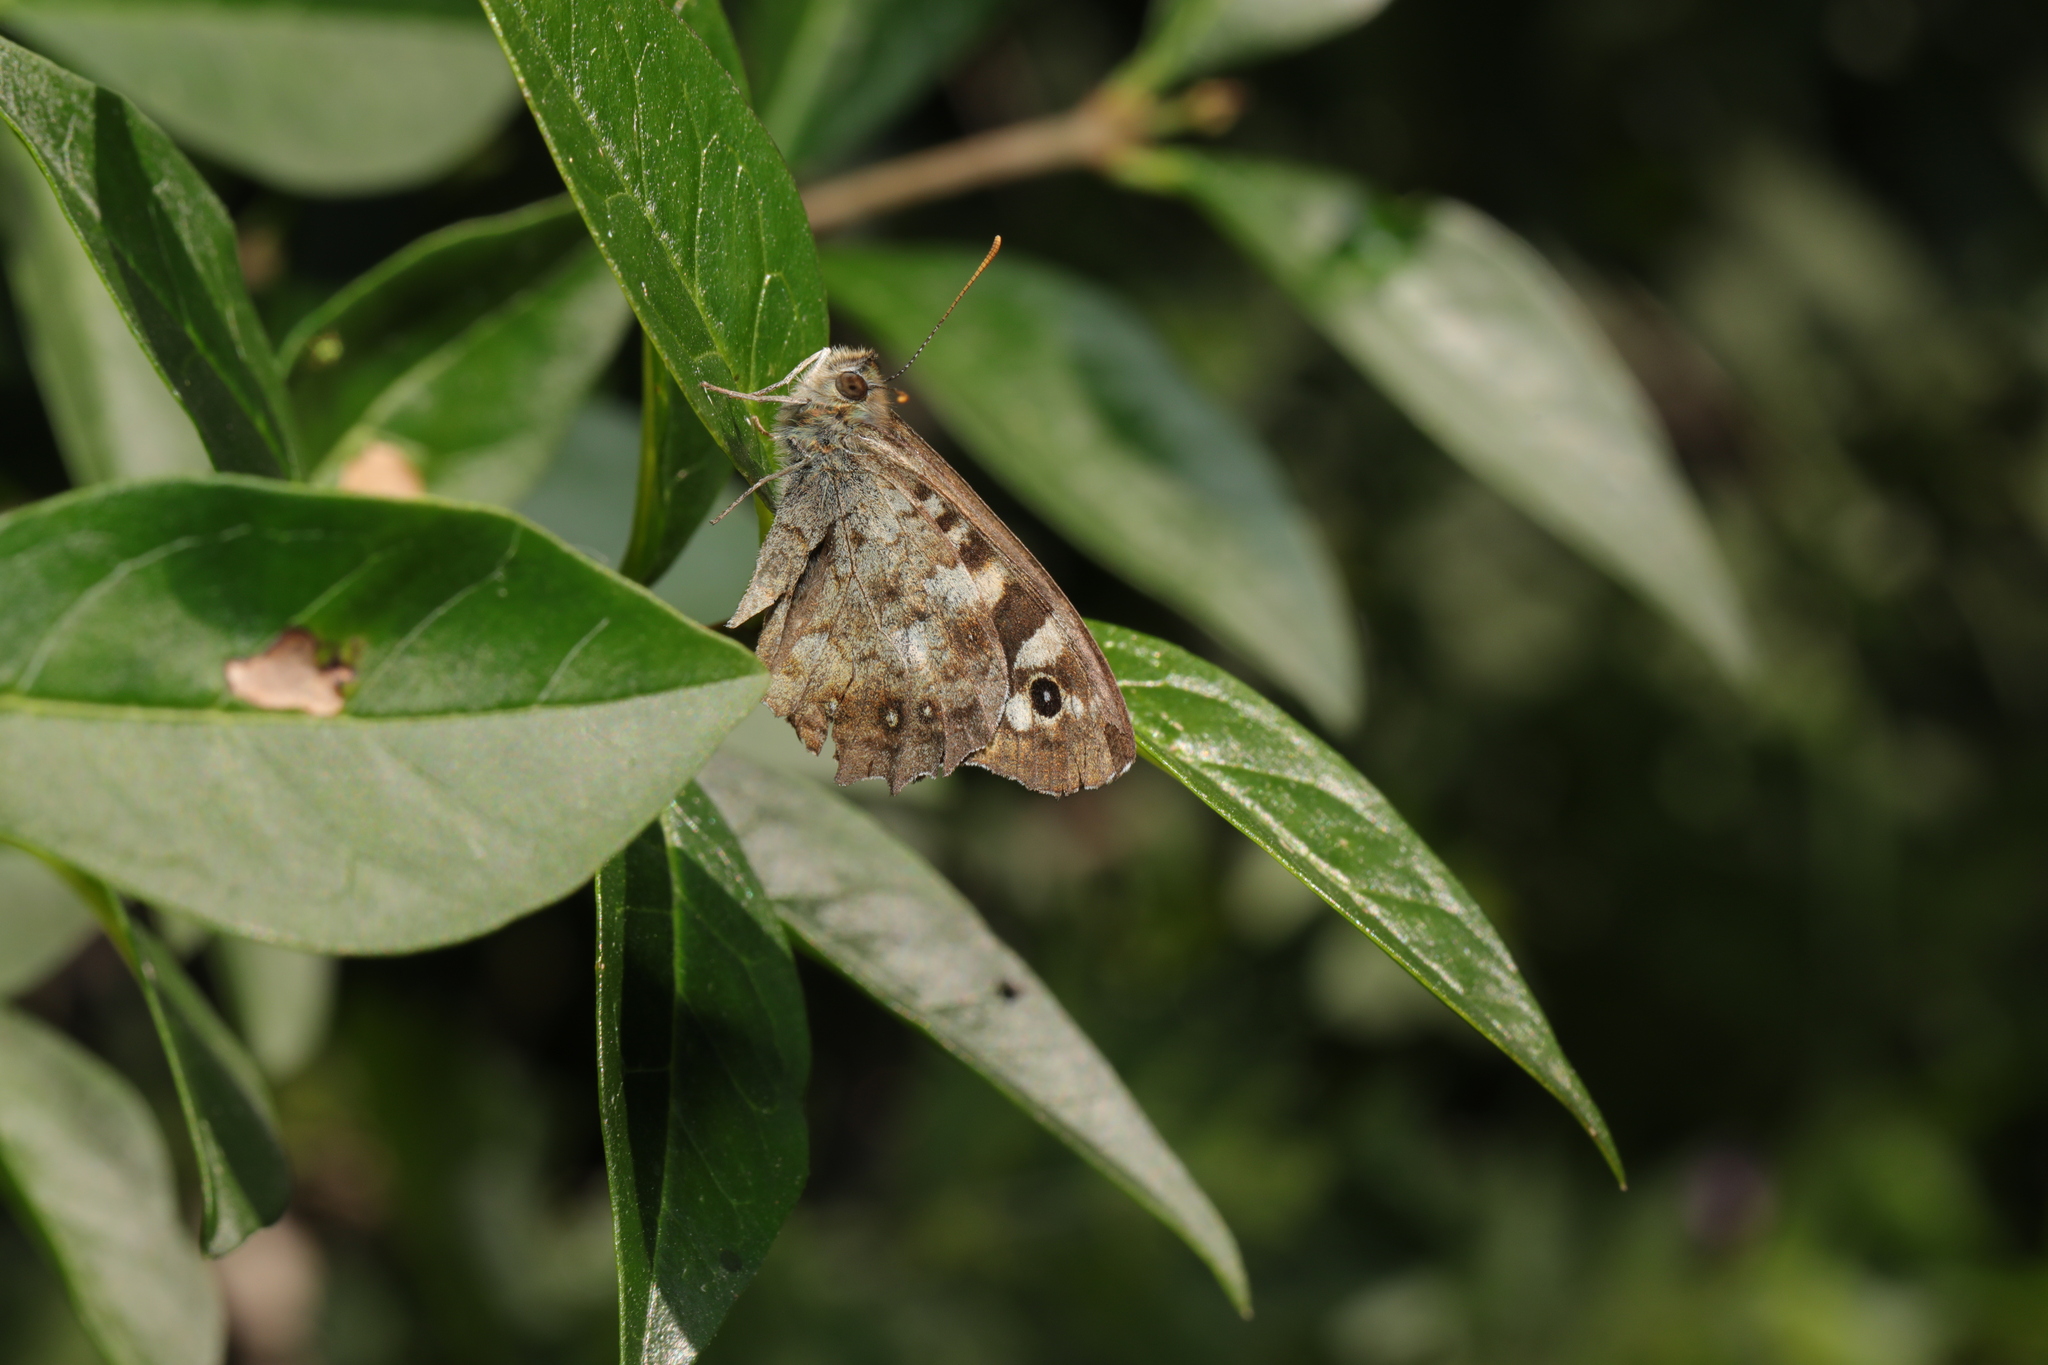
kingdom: Animalia
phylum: Arthropoda
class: Insecta
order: Lepidoptera
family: Nymphalidae
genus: Pararge
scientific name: Pararge aegeria
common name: Speckled wood
